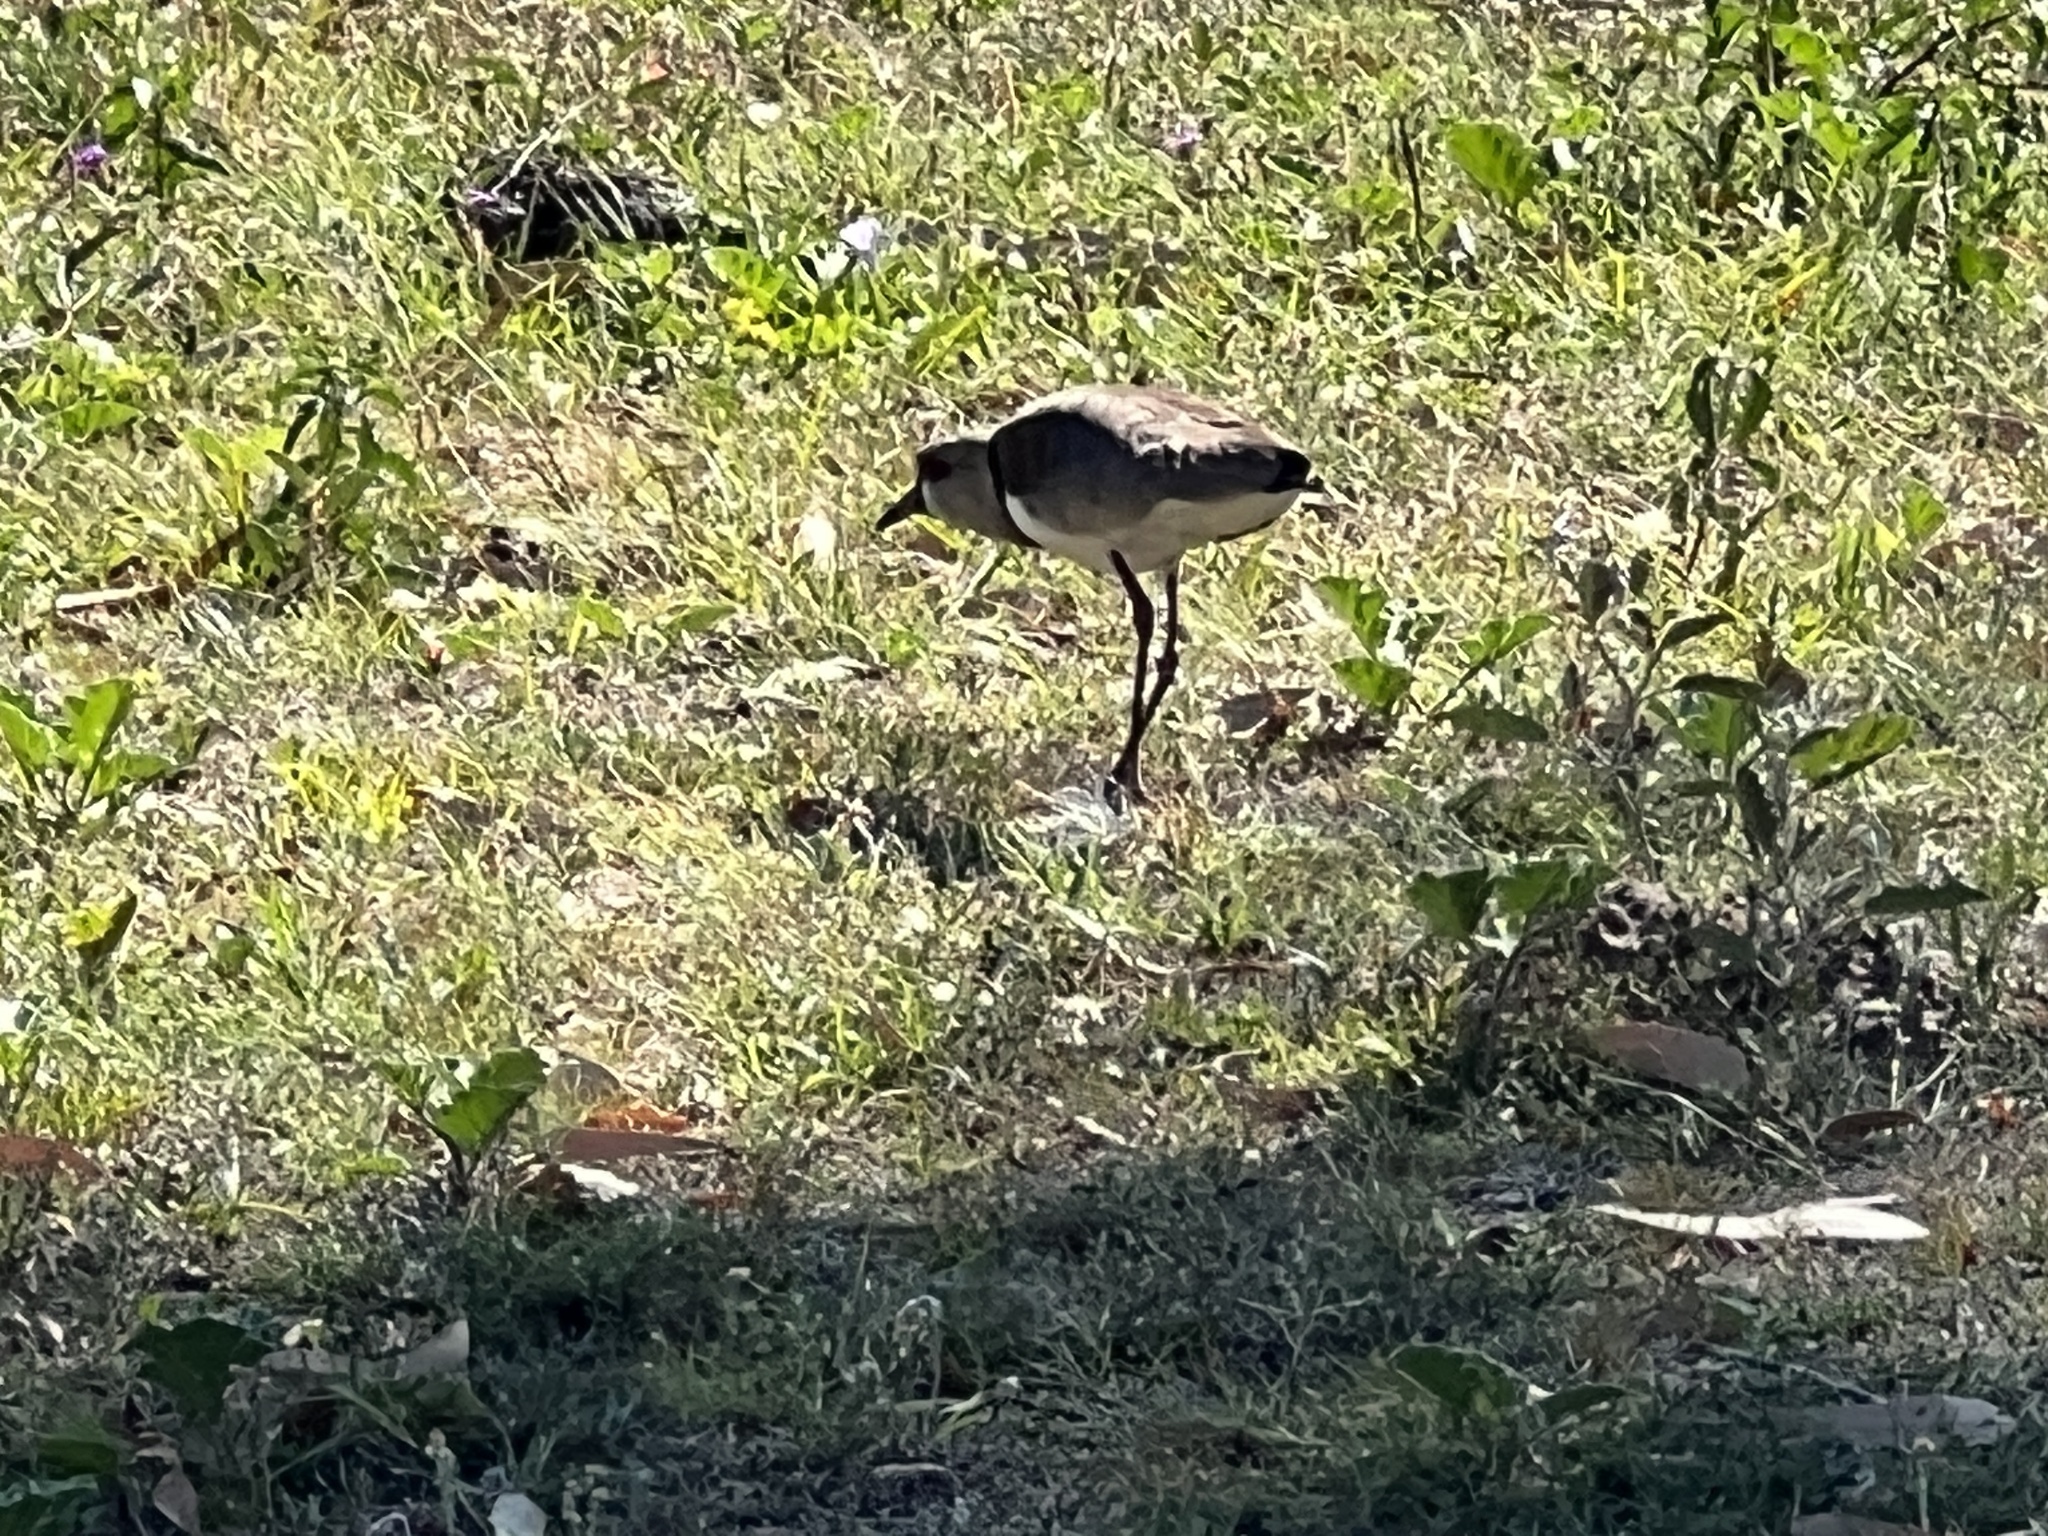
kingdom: Animalia
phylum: Chordata
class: Aves
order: Charadriiformes
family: Charadriidae
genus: Vanellus
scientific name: Vanellus chilensis
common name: Southern lapwing
